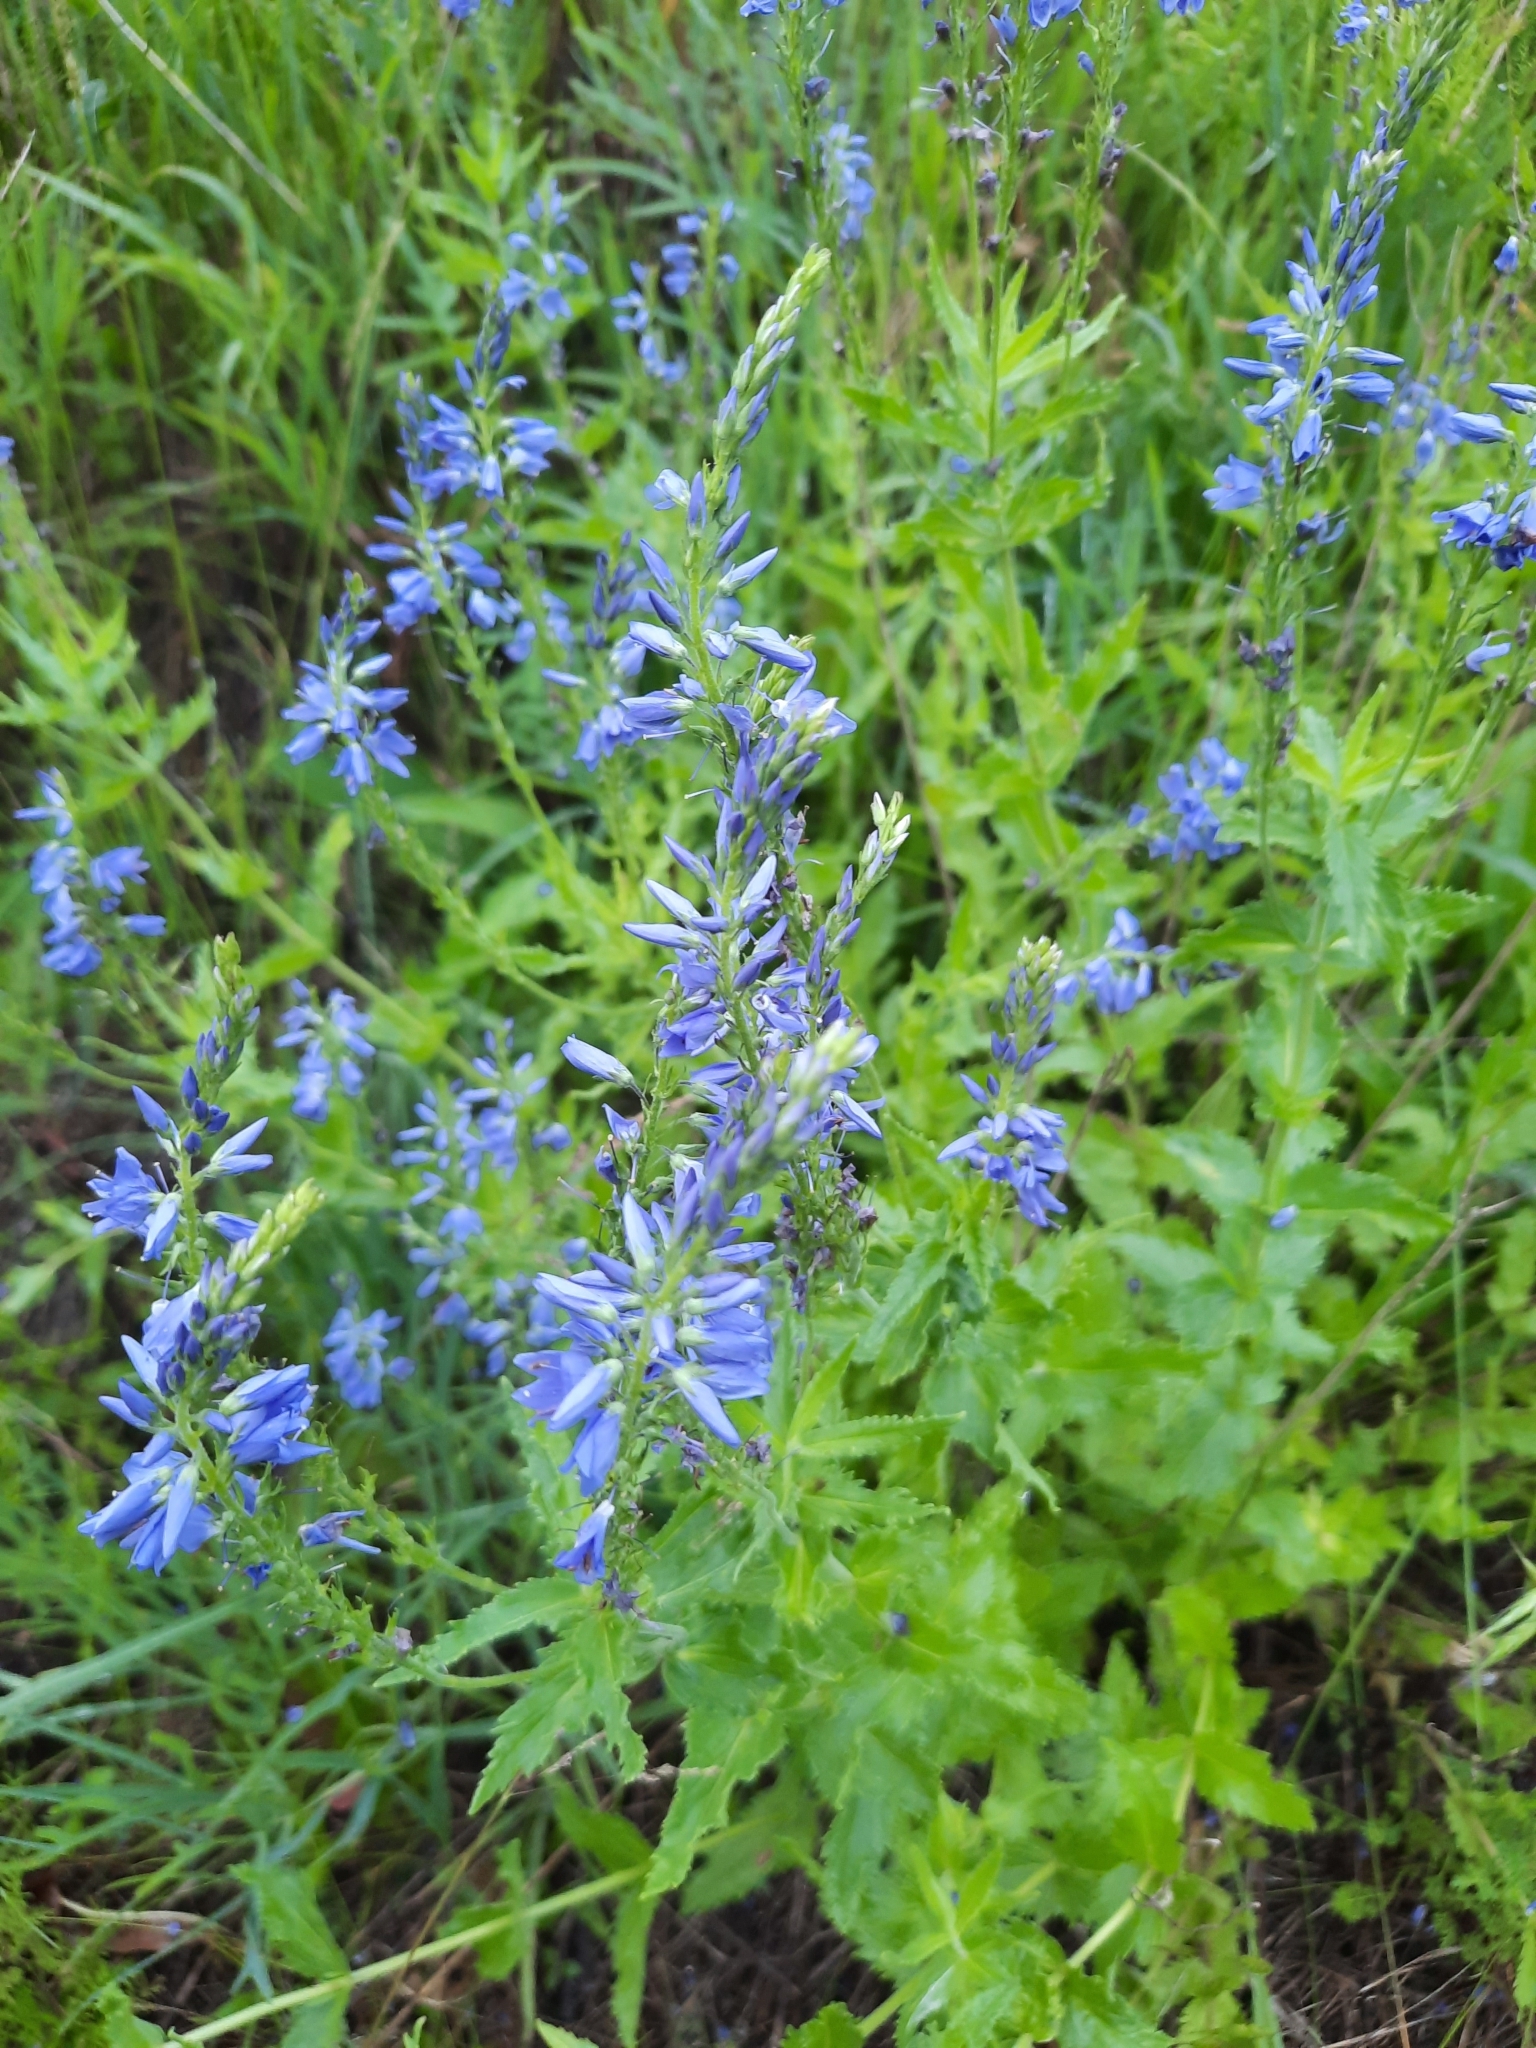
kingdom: Plantae
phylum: Tracheophyta
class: Magnoliopsida
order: Lamiales
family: Plantaginaceae
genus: Veronica
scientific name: Veronica teucrium
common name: Large speedwell
